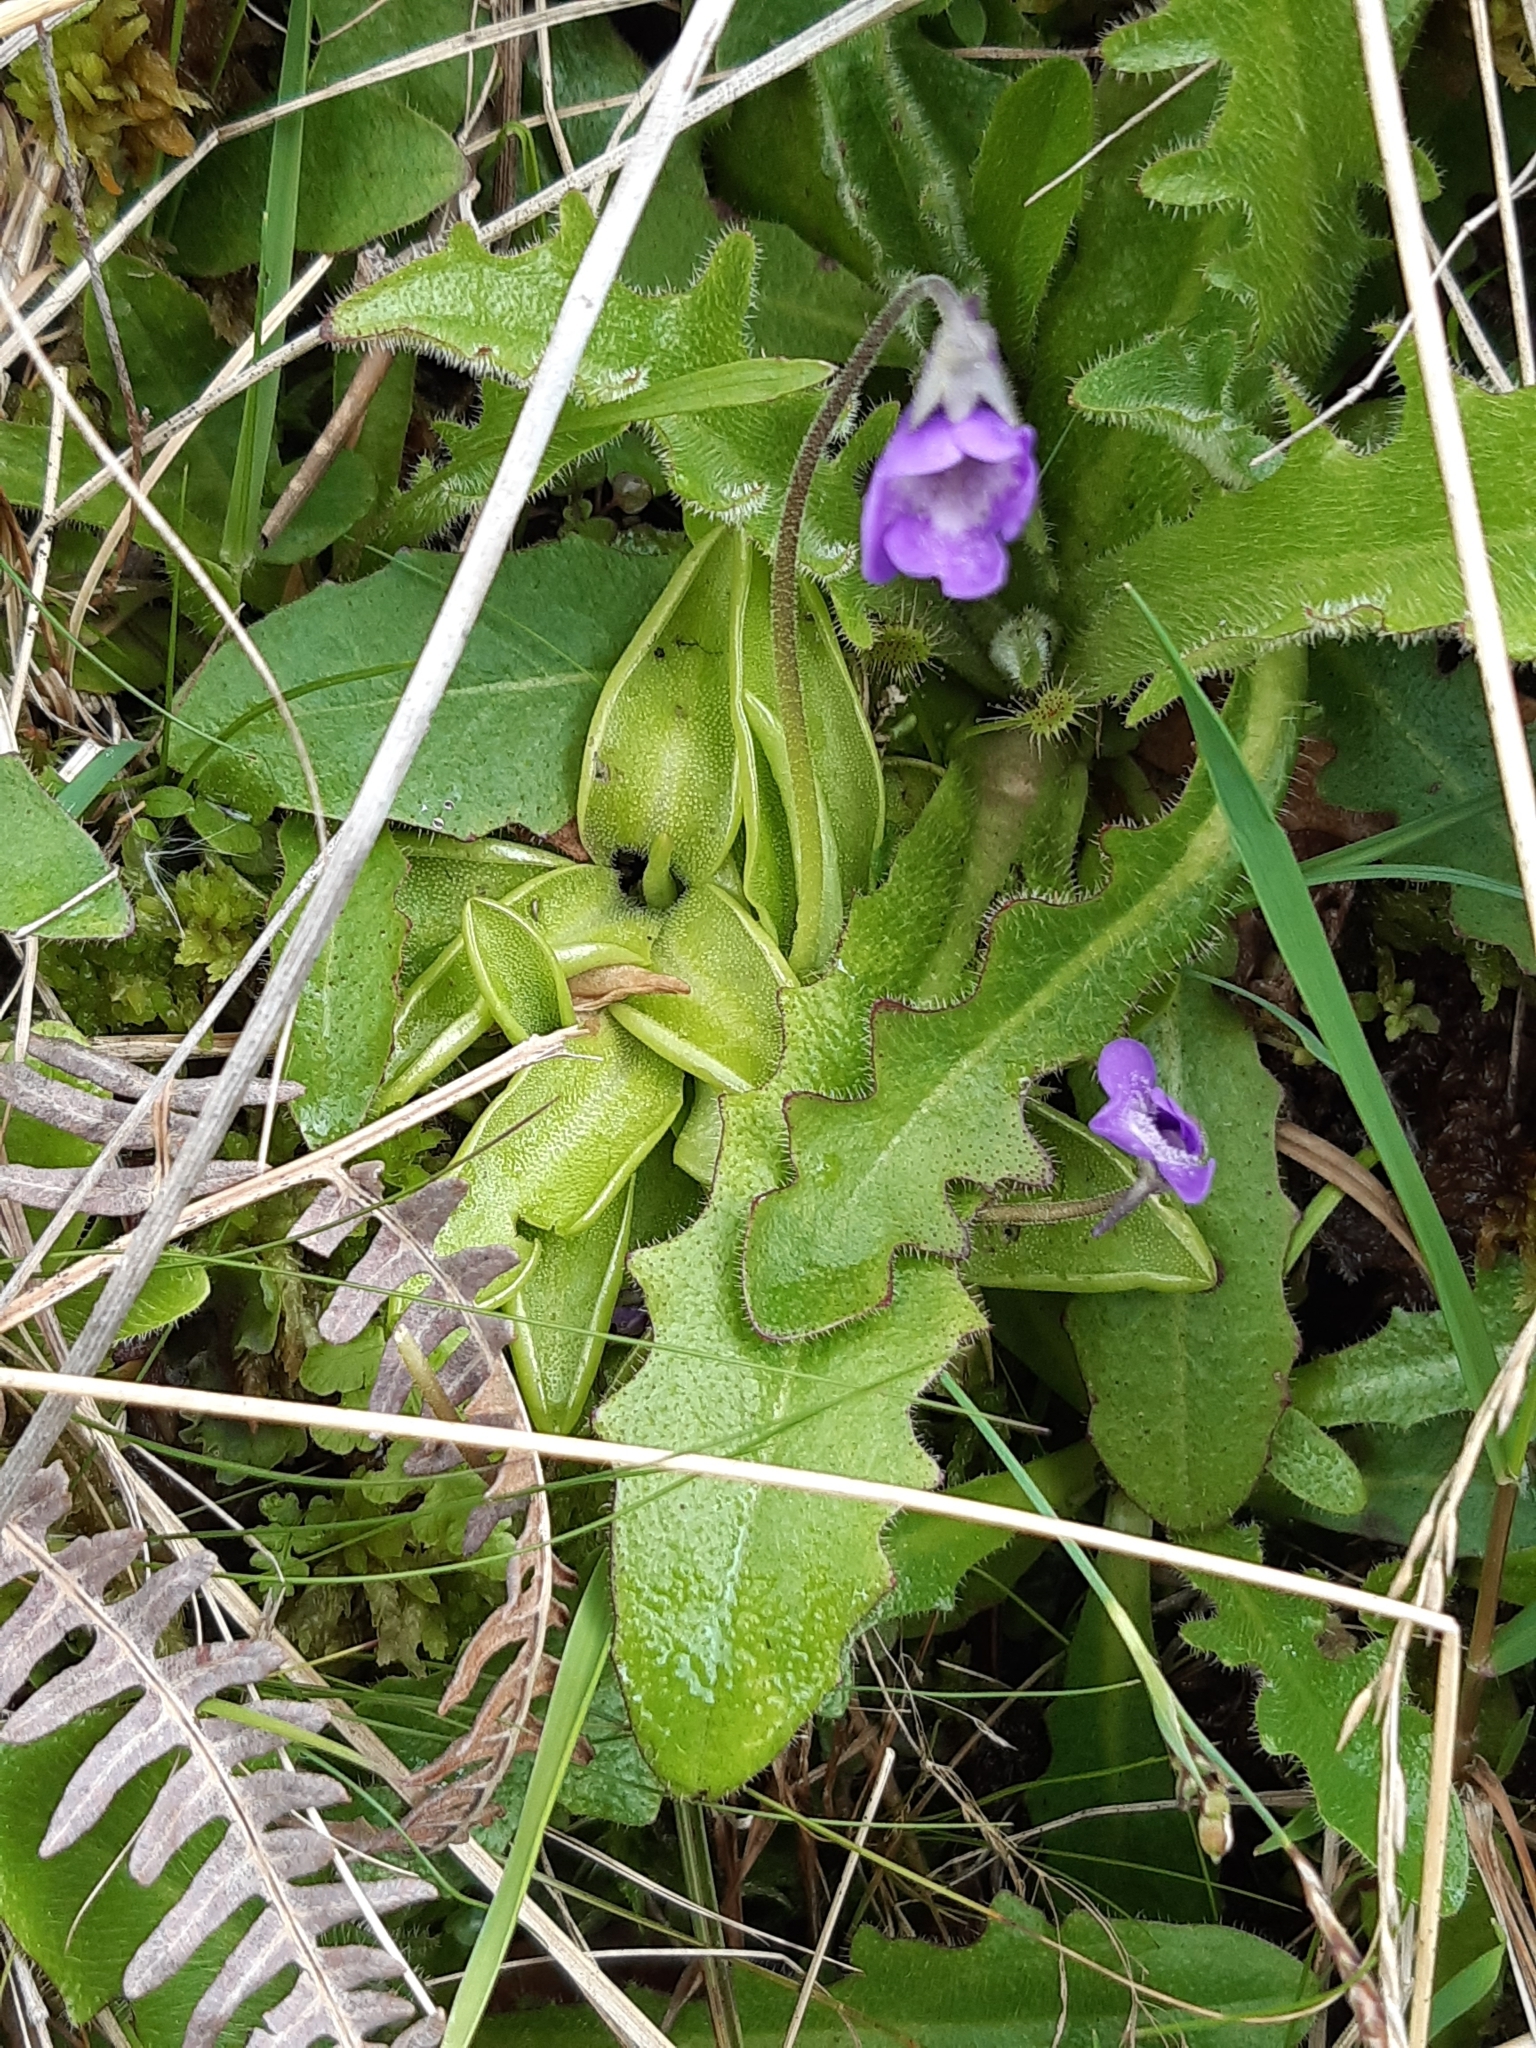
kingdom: Plantae
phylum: Tracheophyta
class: Magnoliopsida
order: Lamiales
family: Lentibulariaceae
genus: Pinguicula
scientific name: Pinguicula vulgaris
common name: Common butterwort
